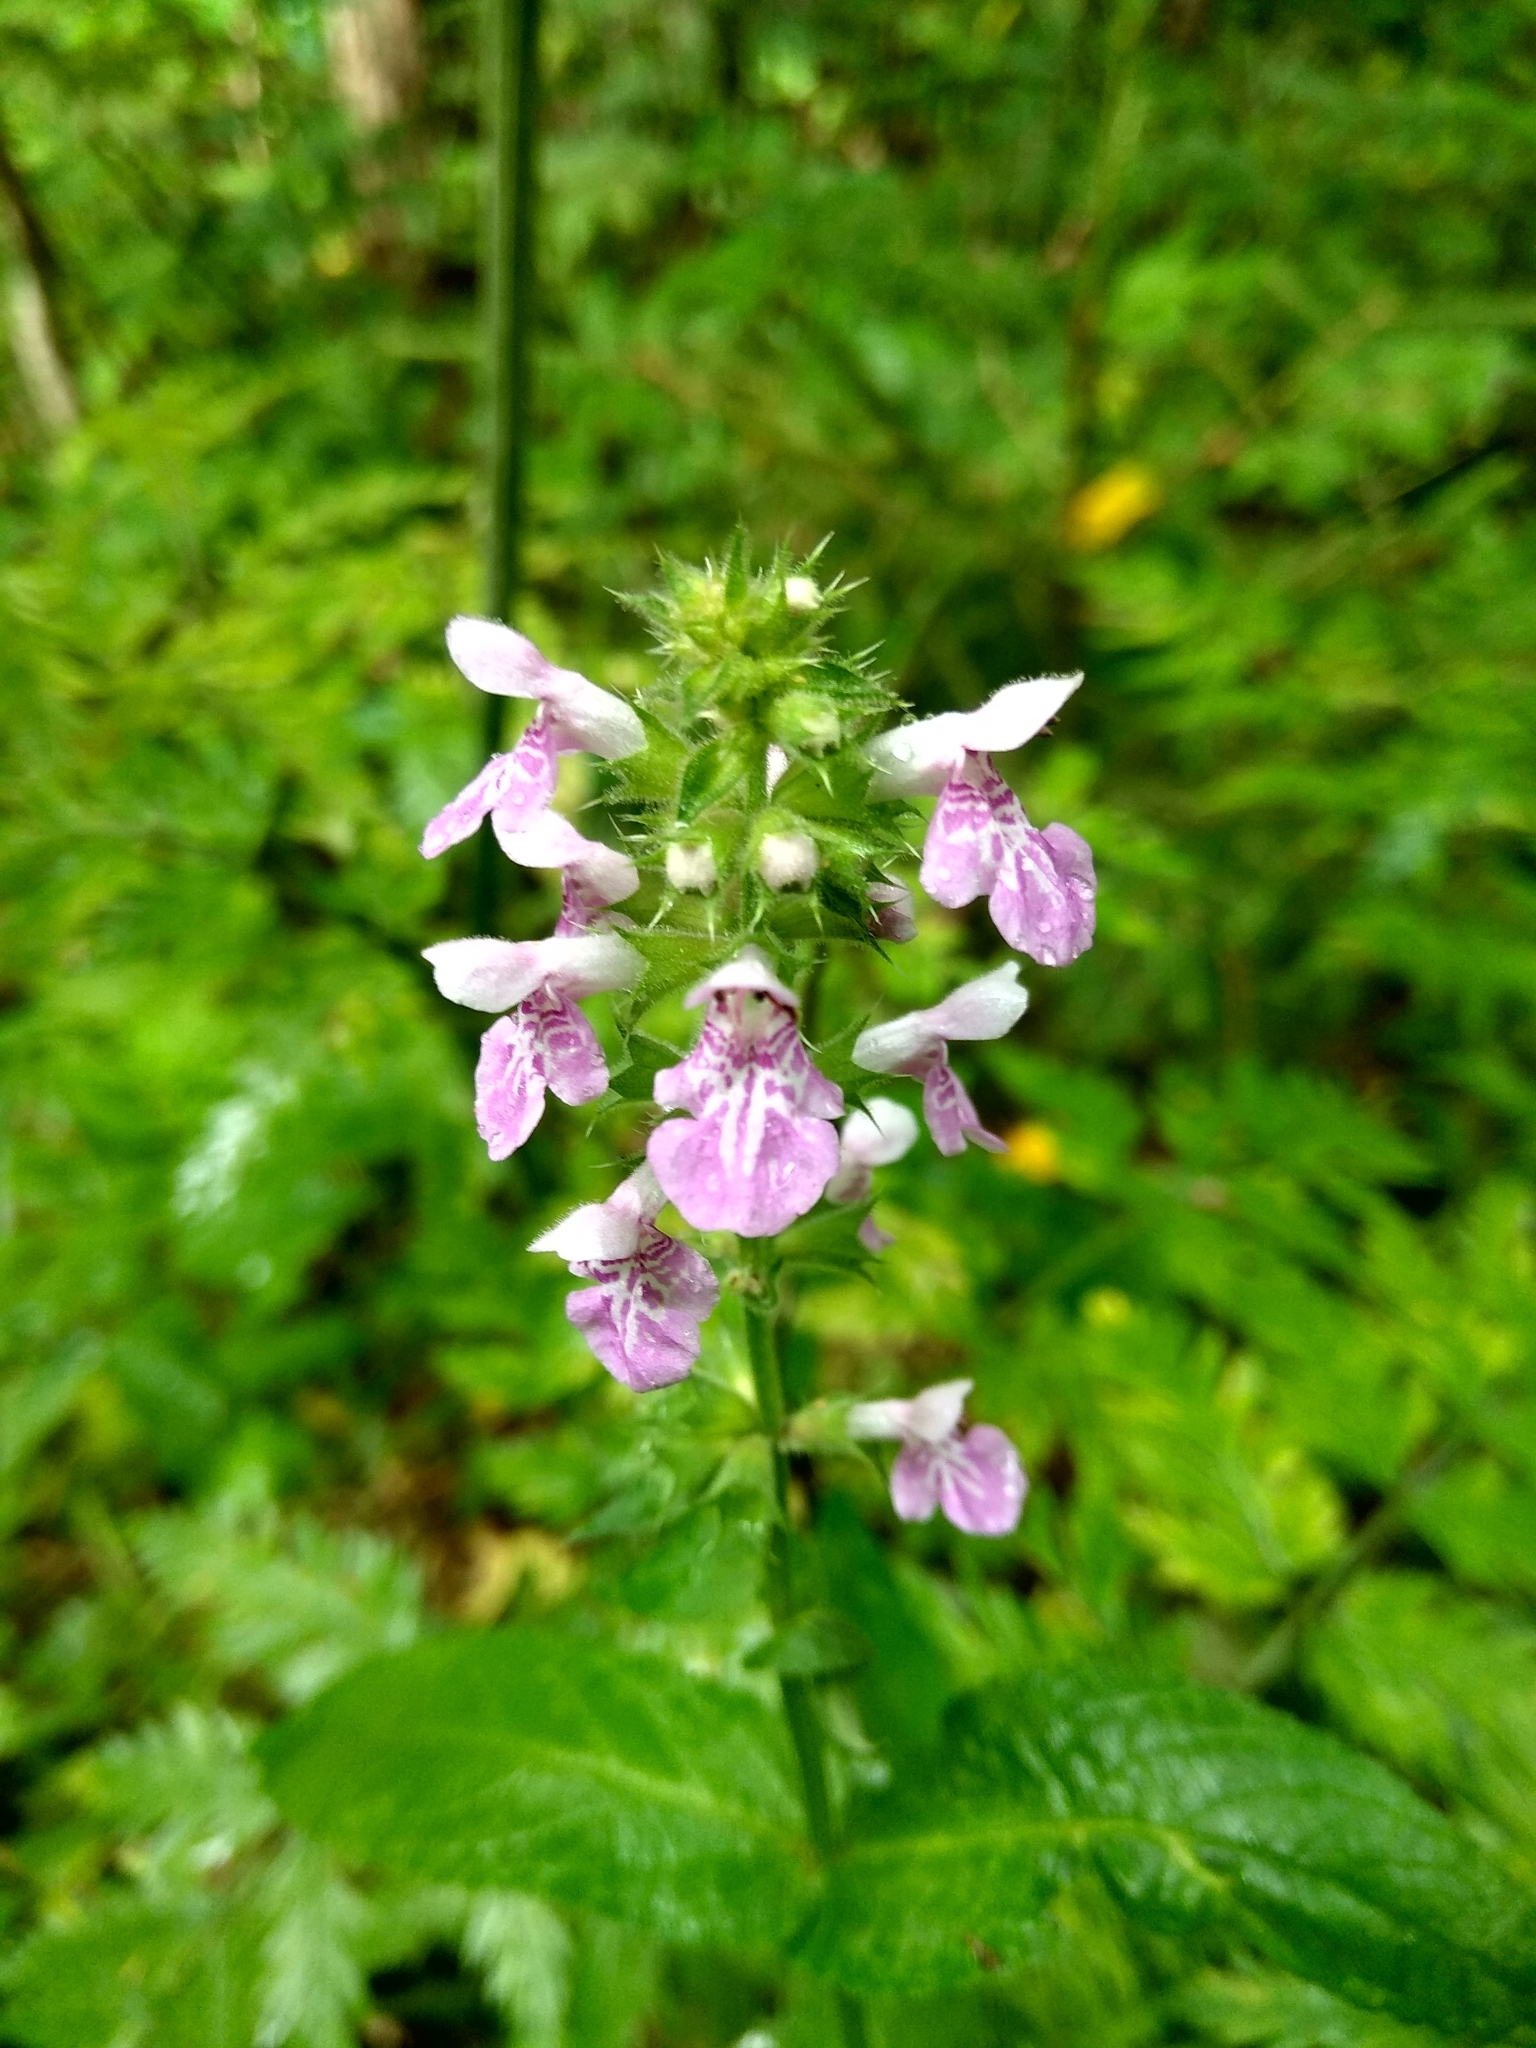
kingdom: Plantae
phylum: Tracheophyta
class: Magnoliopsida
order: Lamiales
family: Lamiaceae
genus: Stachys
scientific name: Stachys palustris
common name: Marsh woundwort
